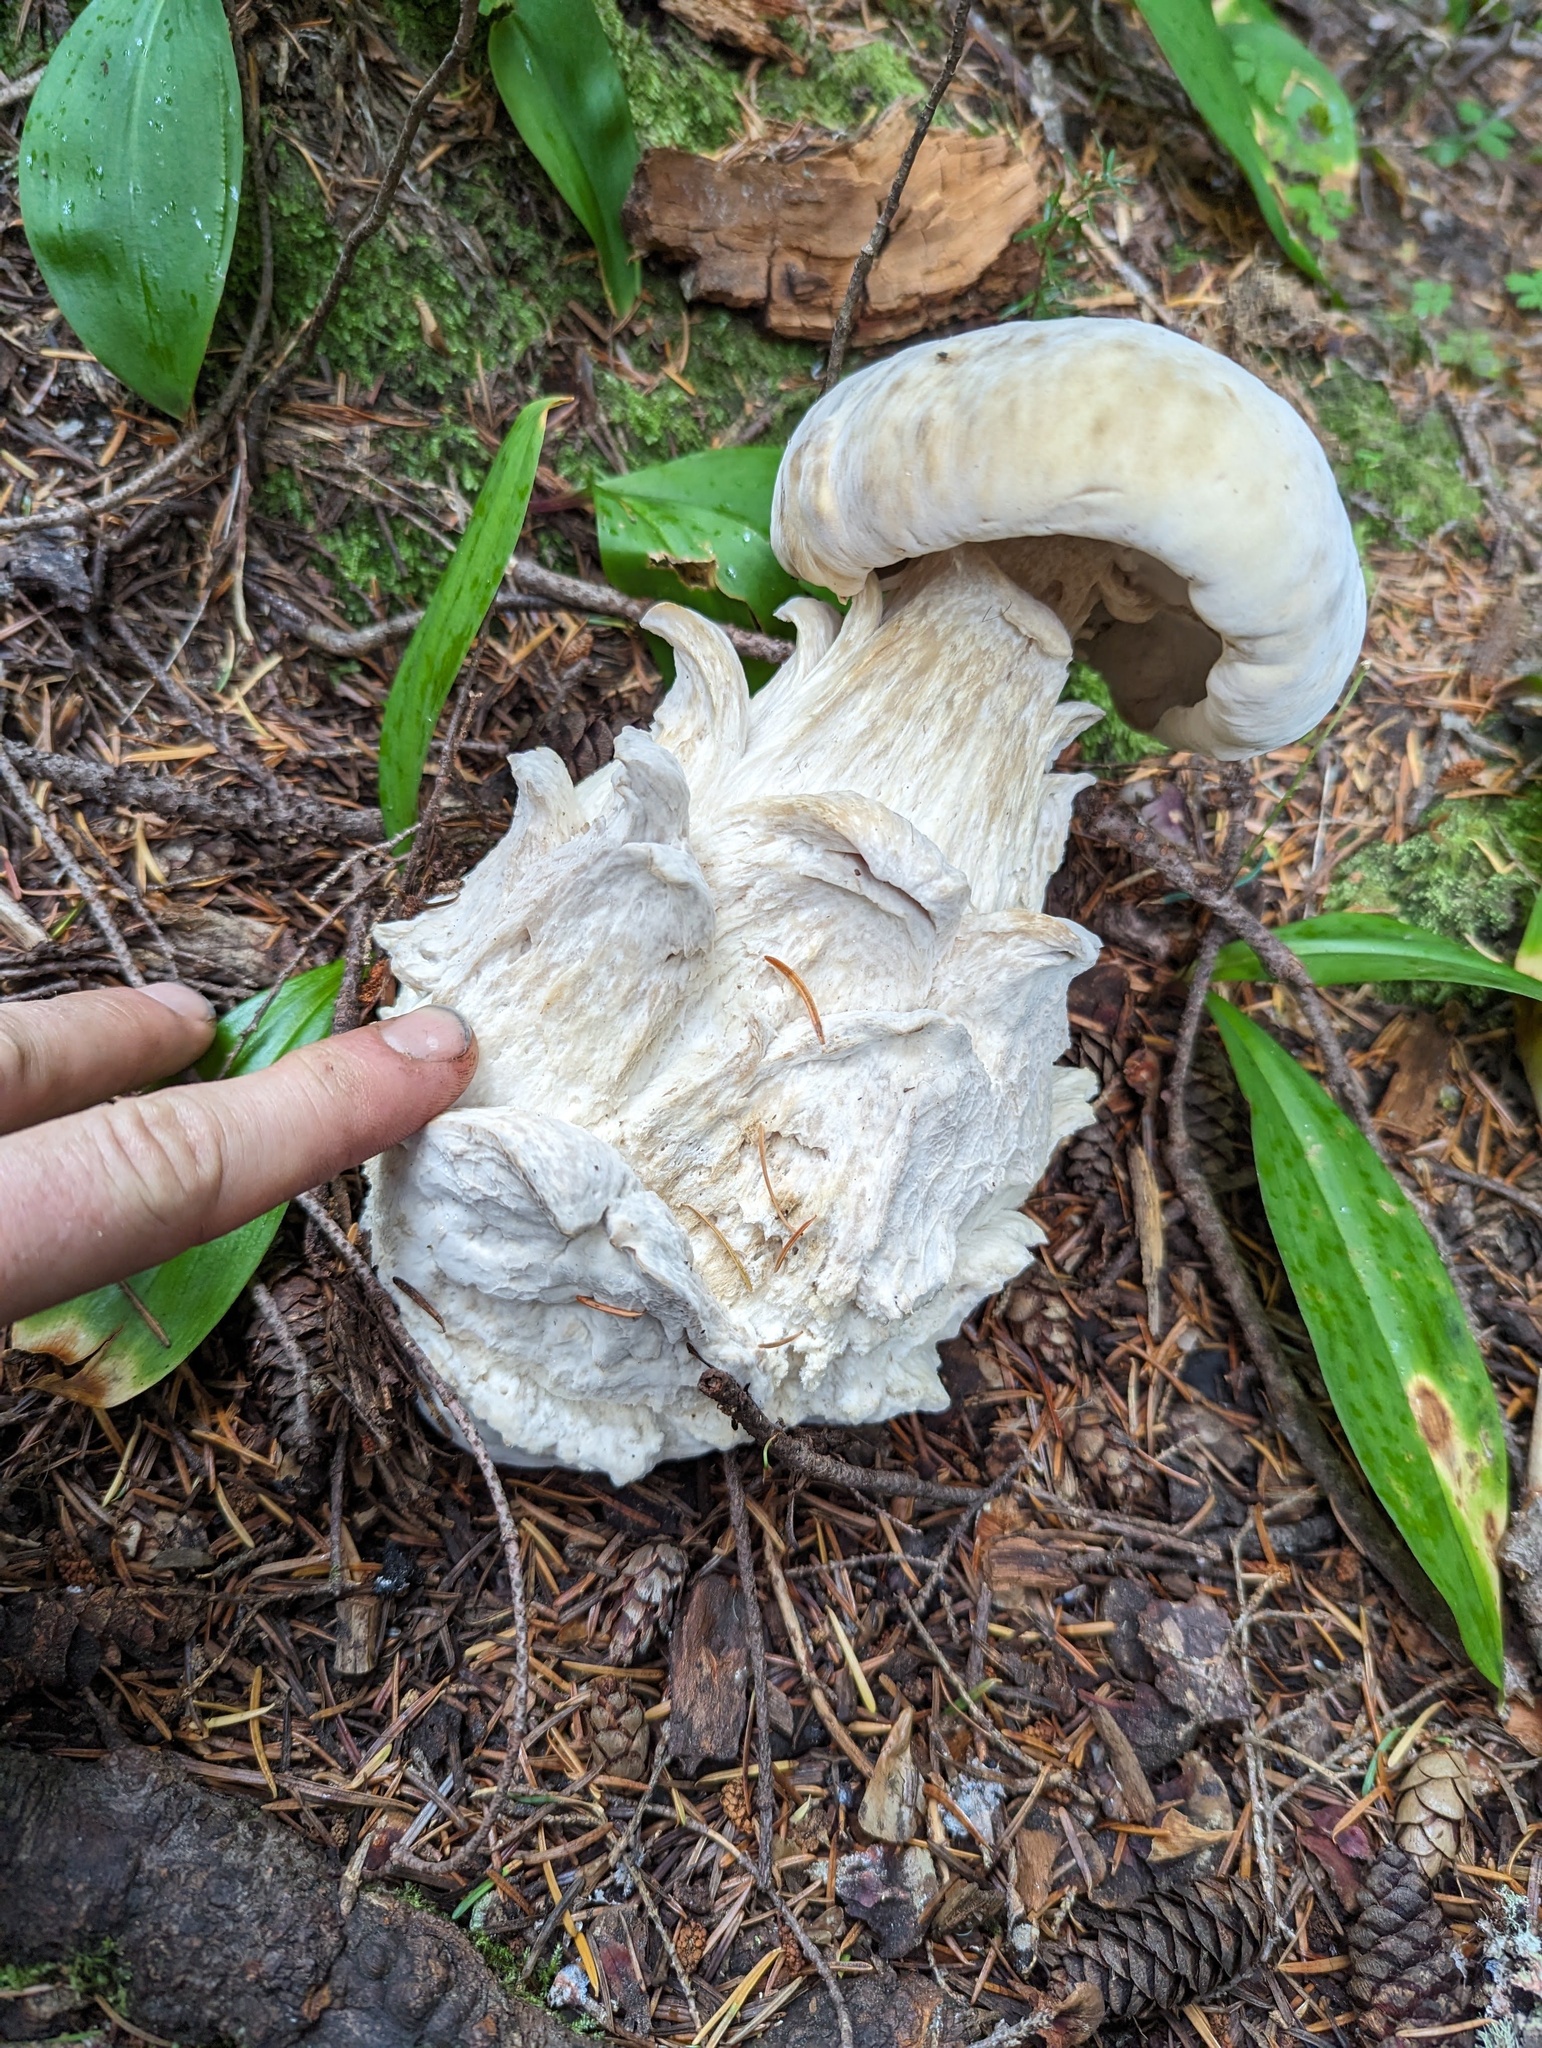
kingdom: Fungi
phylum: Ascomycota
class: Sordariomycetes
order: Hypocreales
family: Hypocreaceae
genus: Hypomyces
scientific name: Hypomyces chrysospermus
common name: Bolete mould
